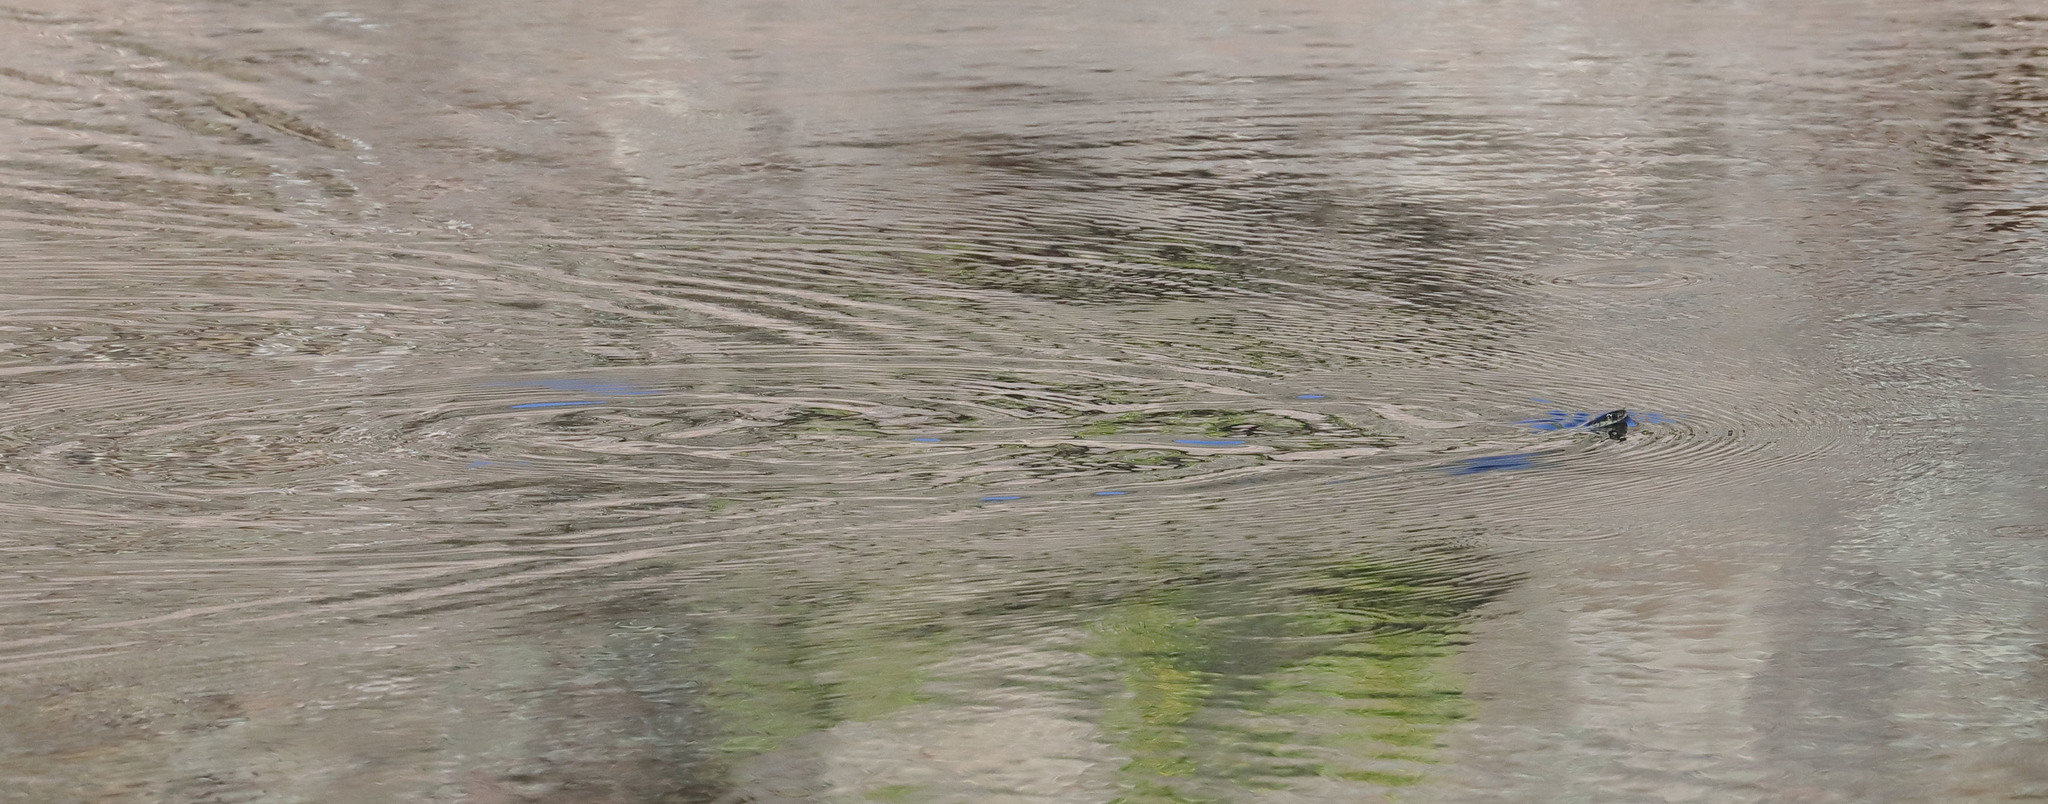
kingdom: Animalia
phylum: Chordata
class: Squamata
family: Colubridae
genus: Thamnophis
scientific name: Thamnophis sirtalis
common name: Common garter snake
